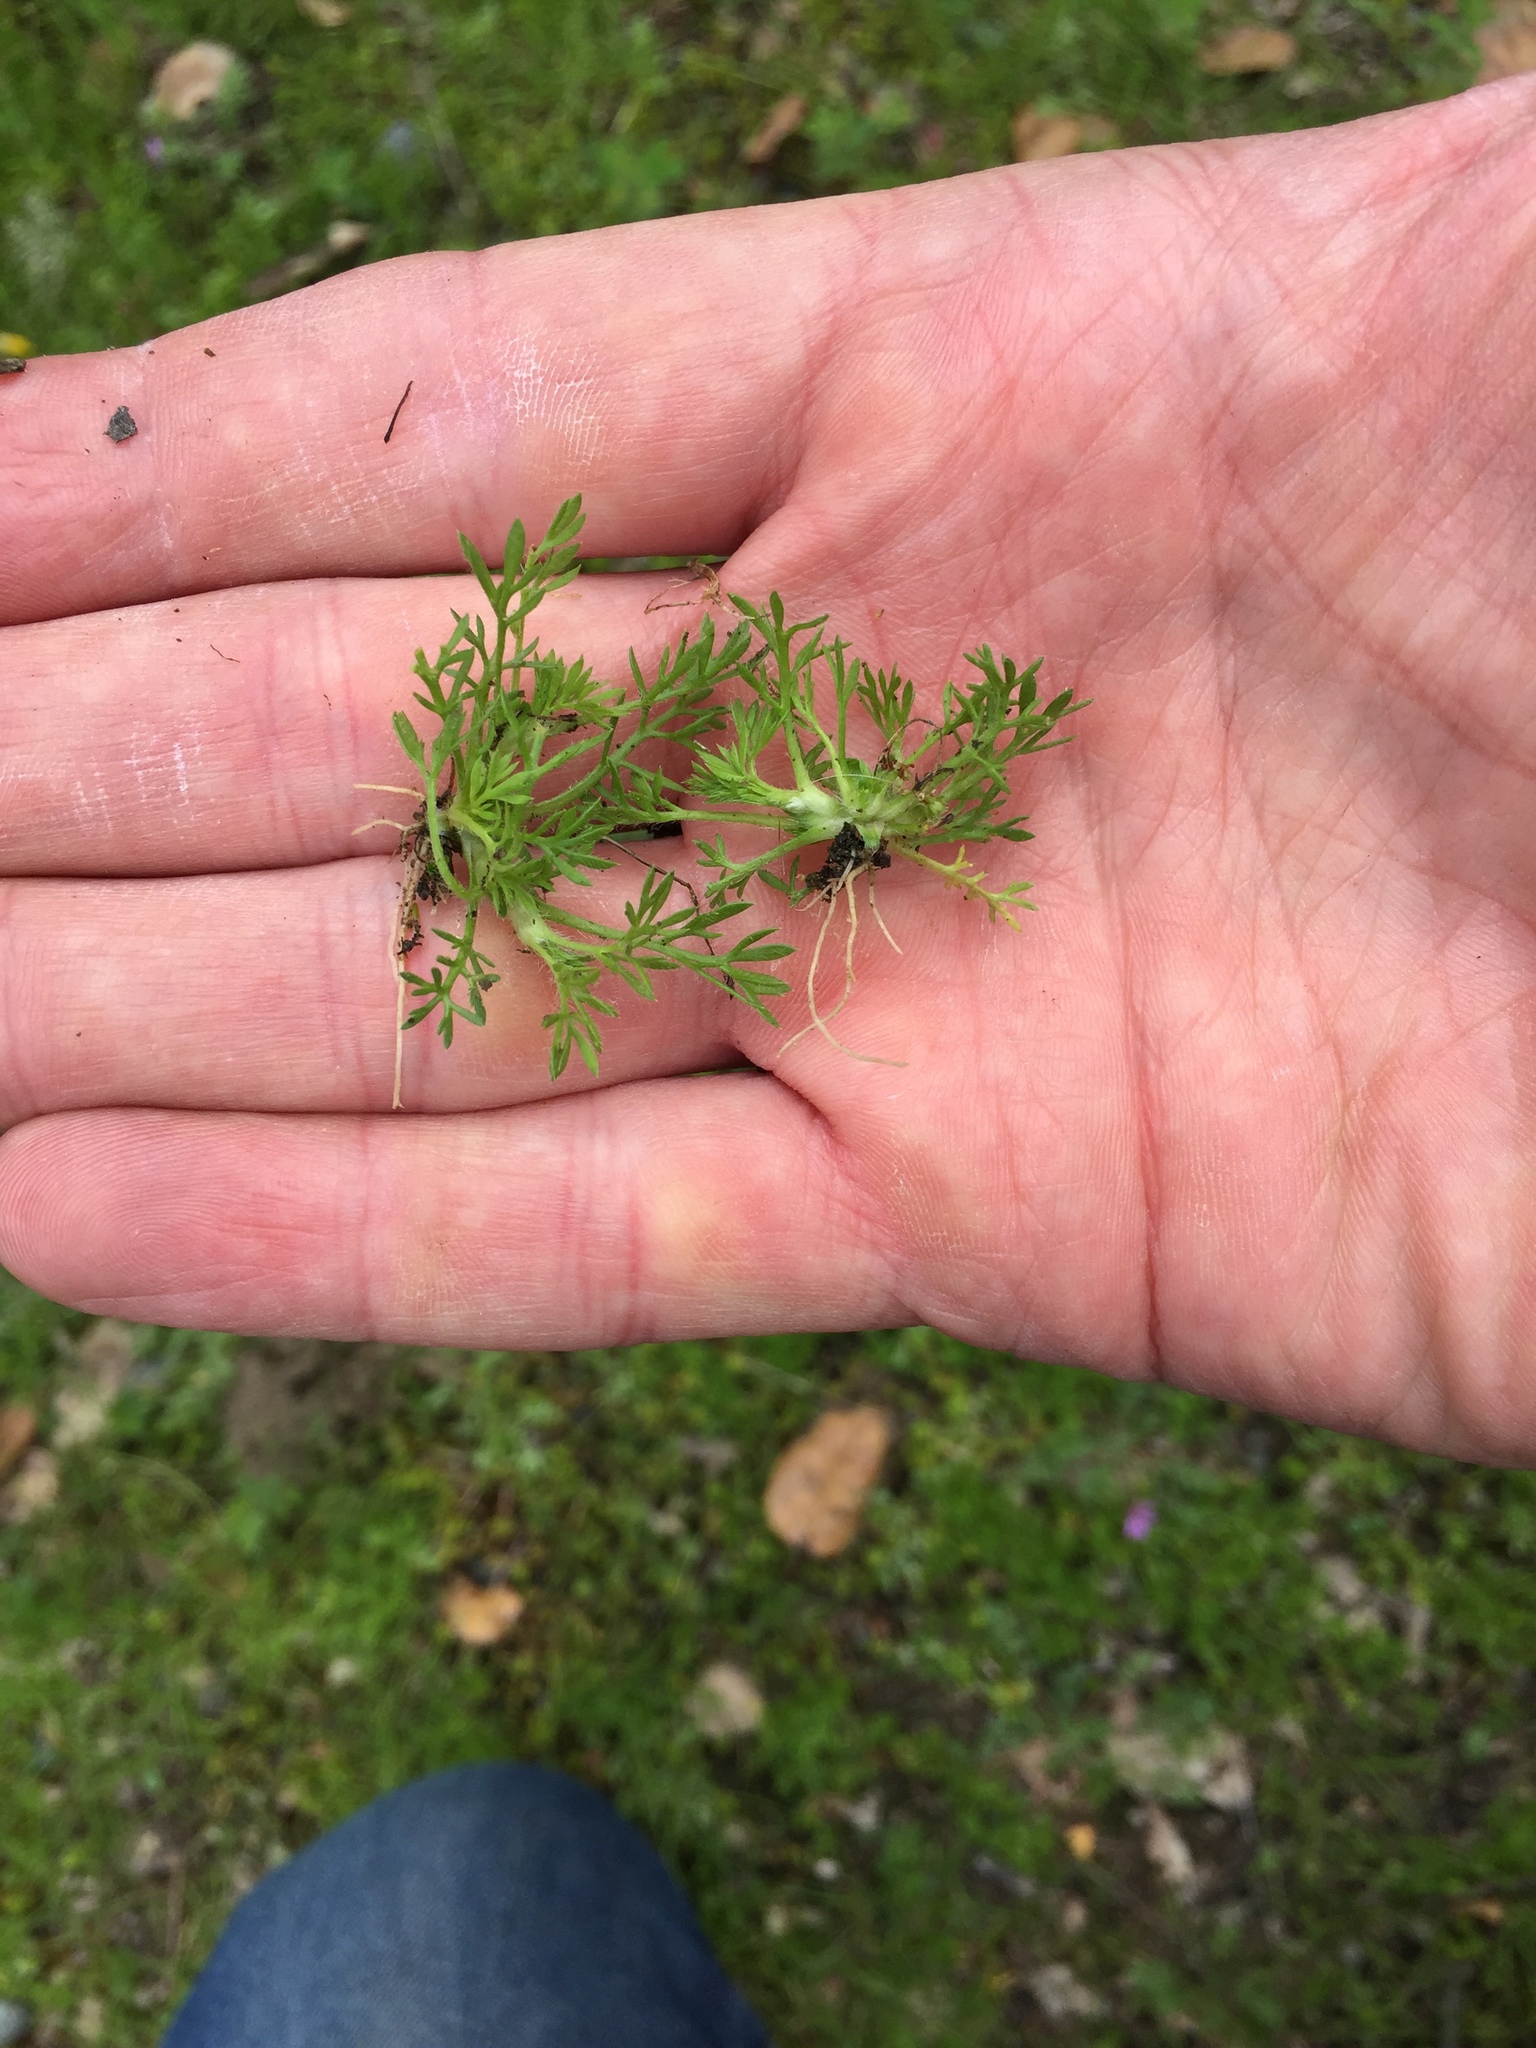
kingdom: Plantae
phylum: Tracheophyta
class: Magnoliopsida
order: Asterales
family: Asteraceae
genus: Soliva
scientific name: Soliva sessilis
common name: Field burrweed
